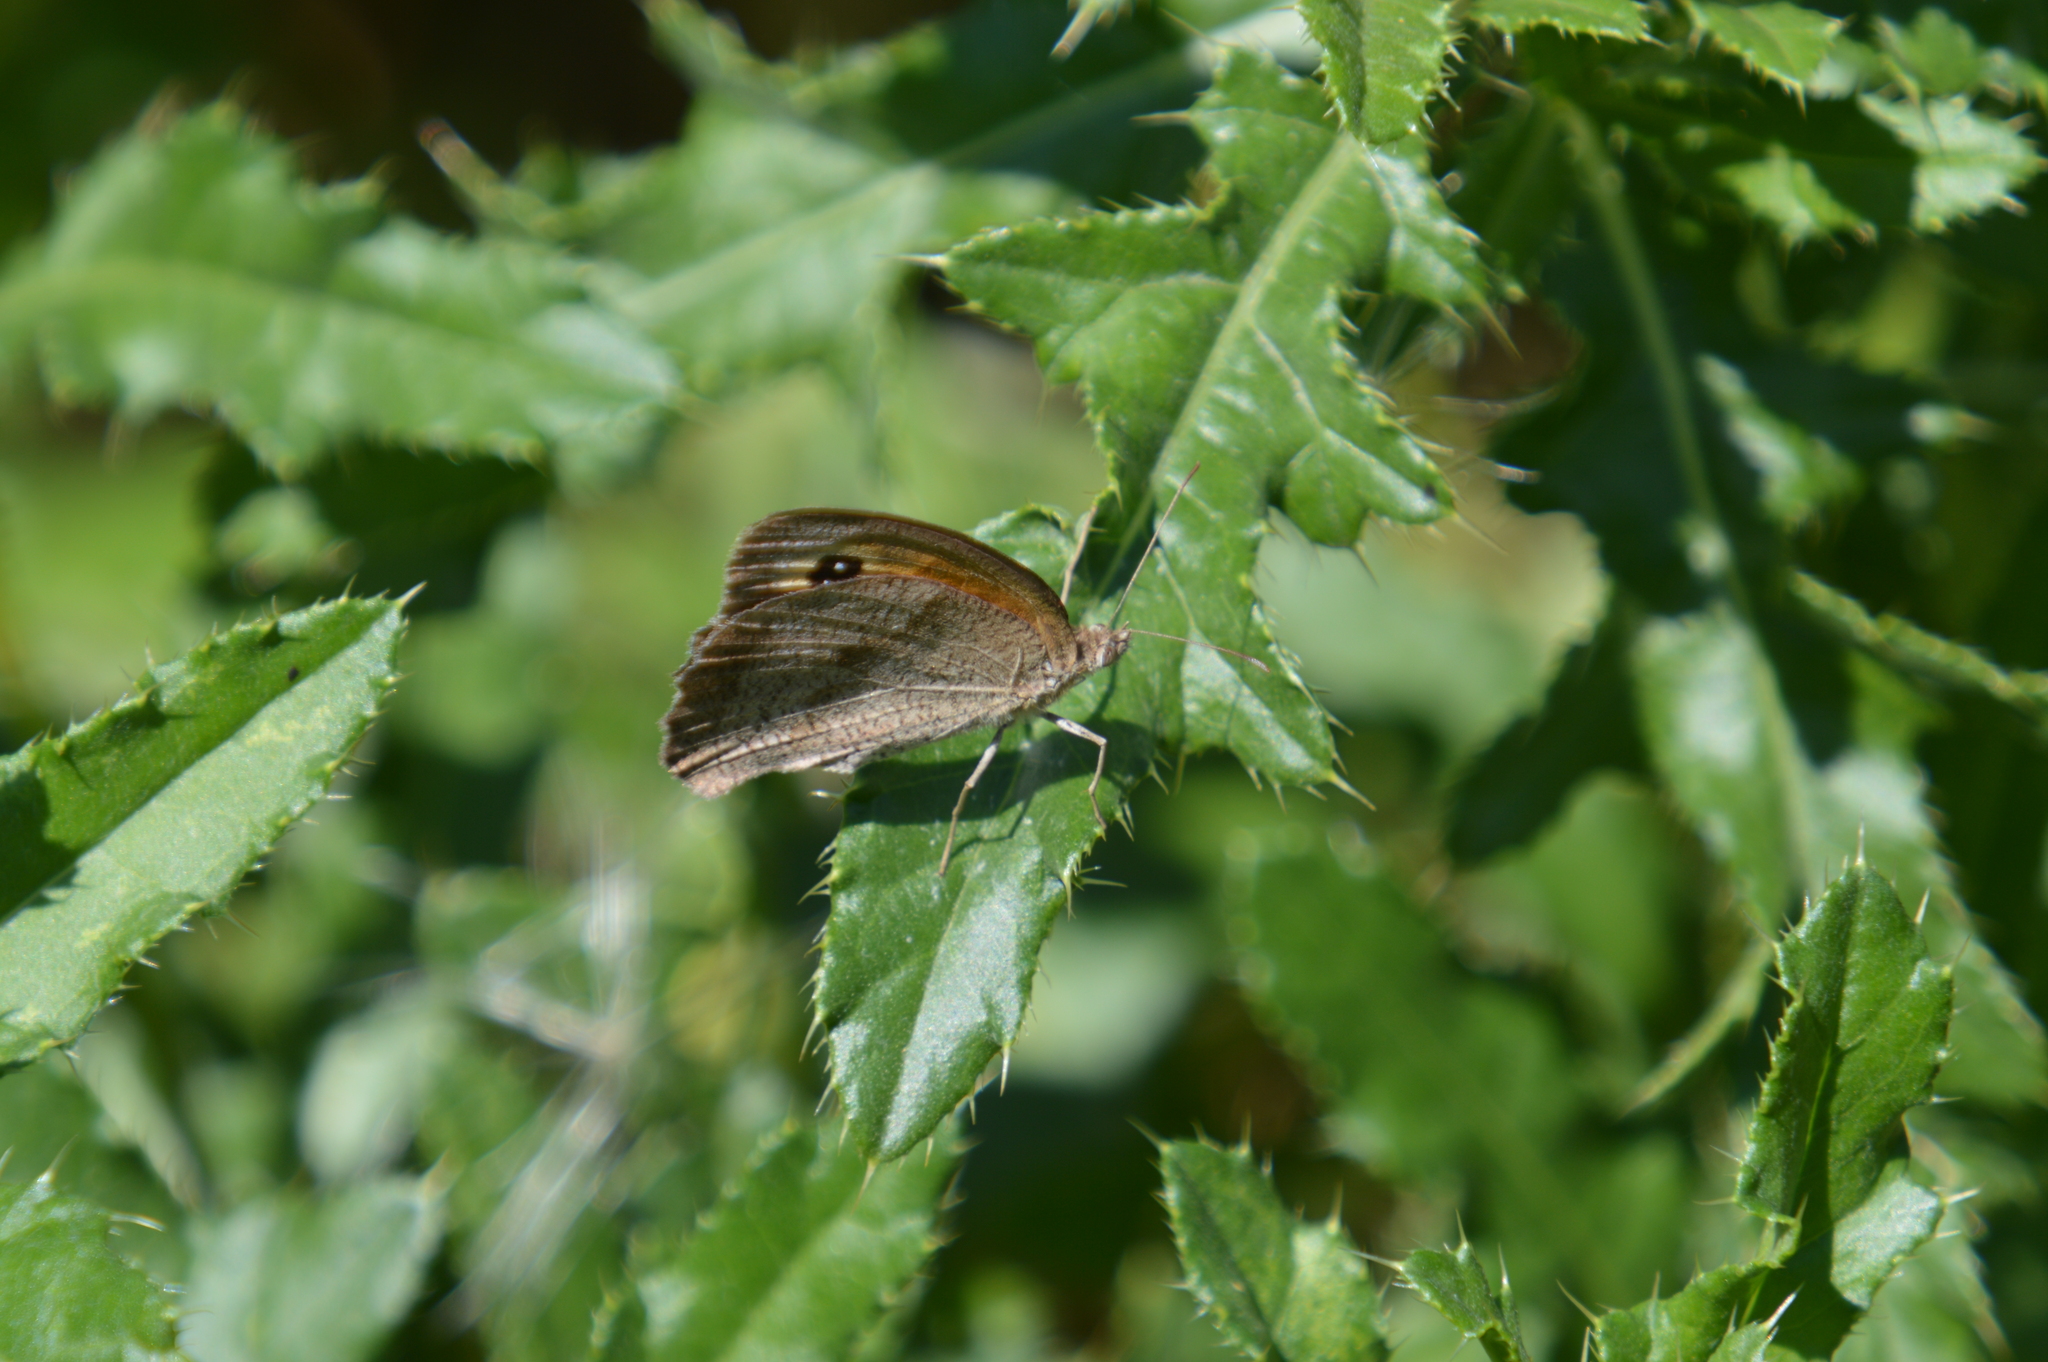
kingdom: Animalia
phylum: Arthropoda
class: Insecta
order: Lepidoptera
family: Nymphalidae
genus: Maniola
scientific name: Maniola jurtina
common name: Meadow brown
